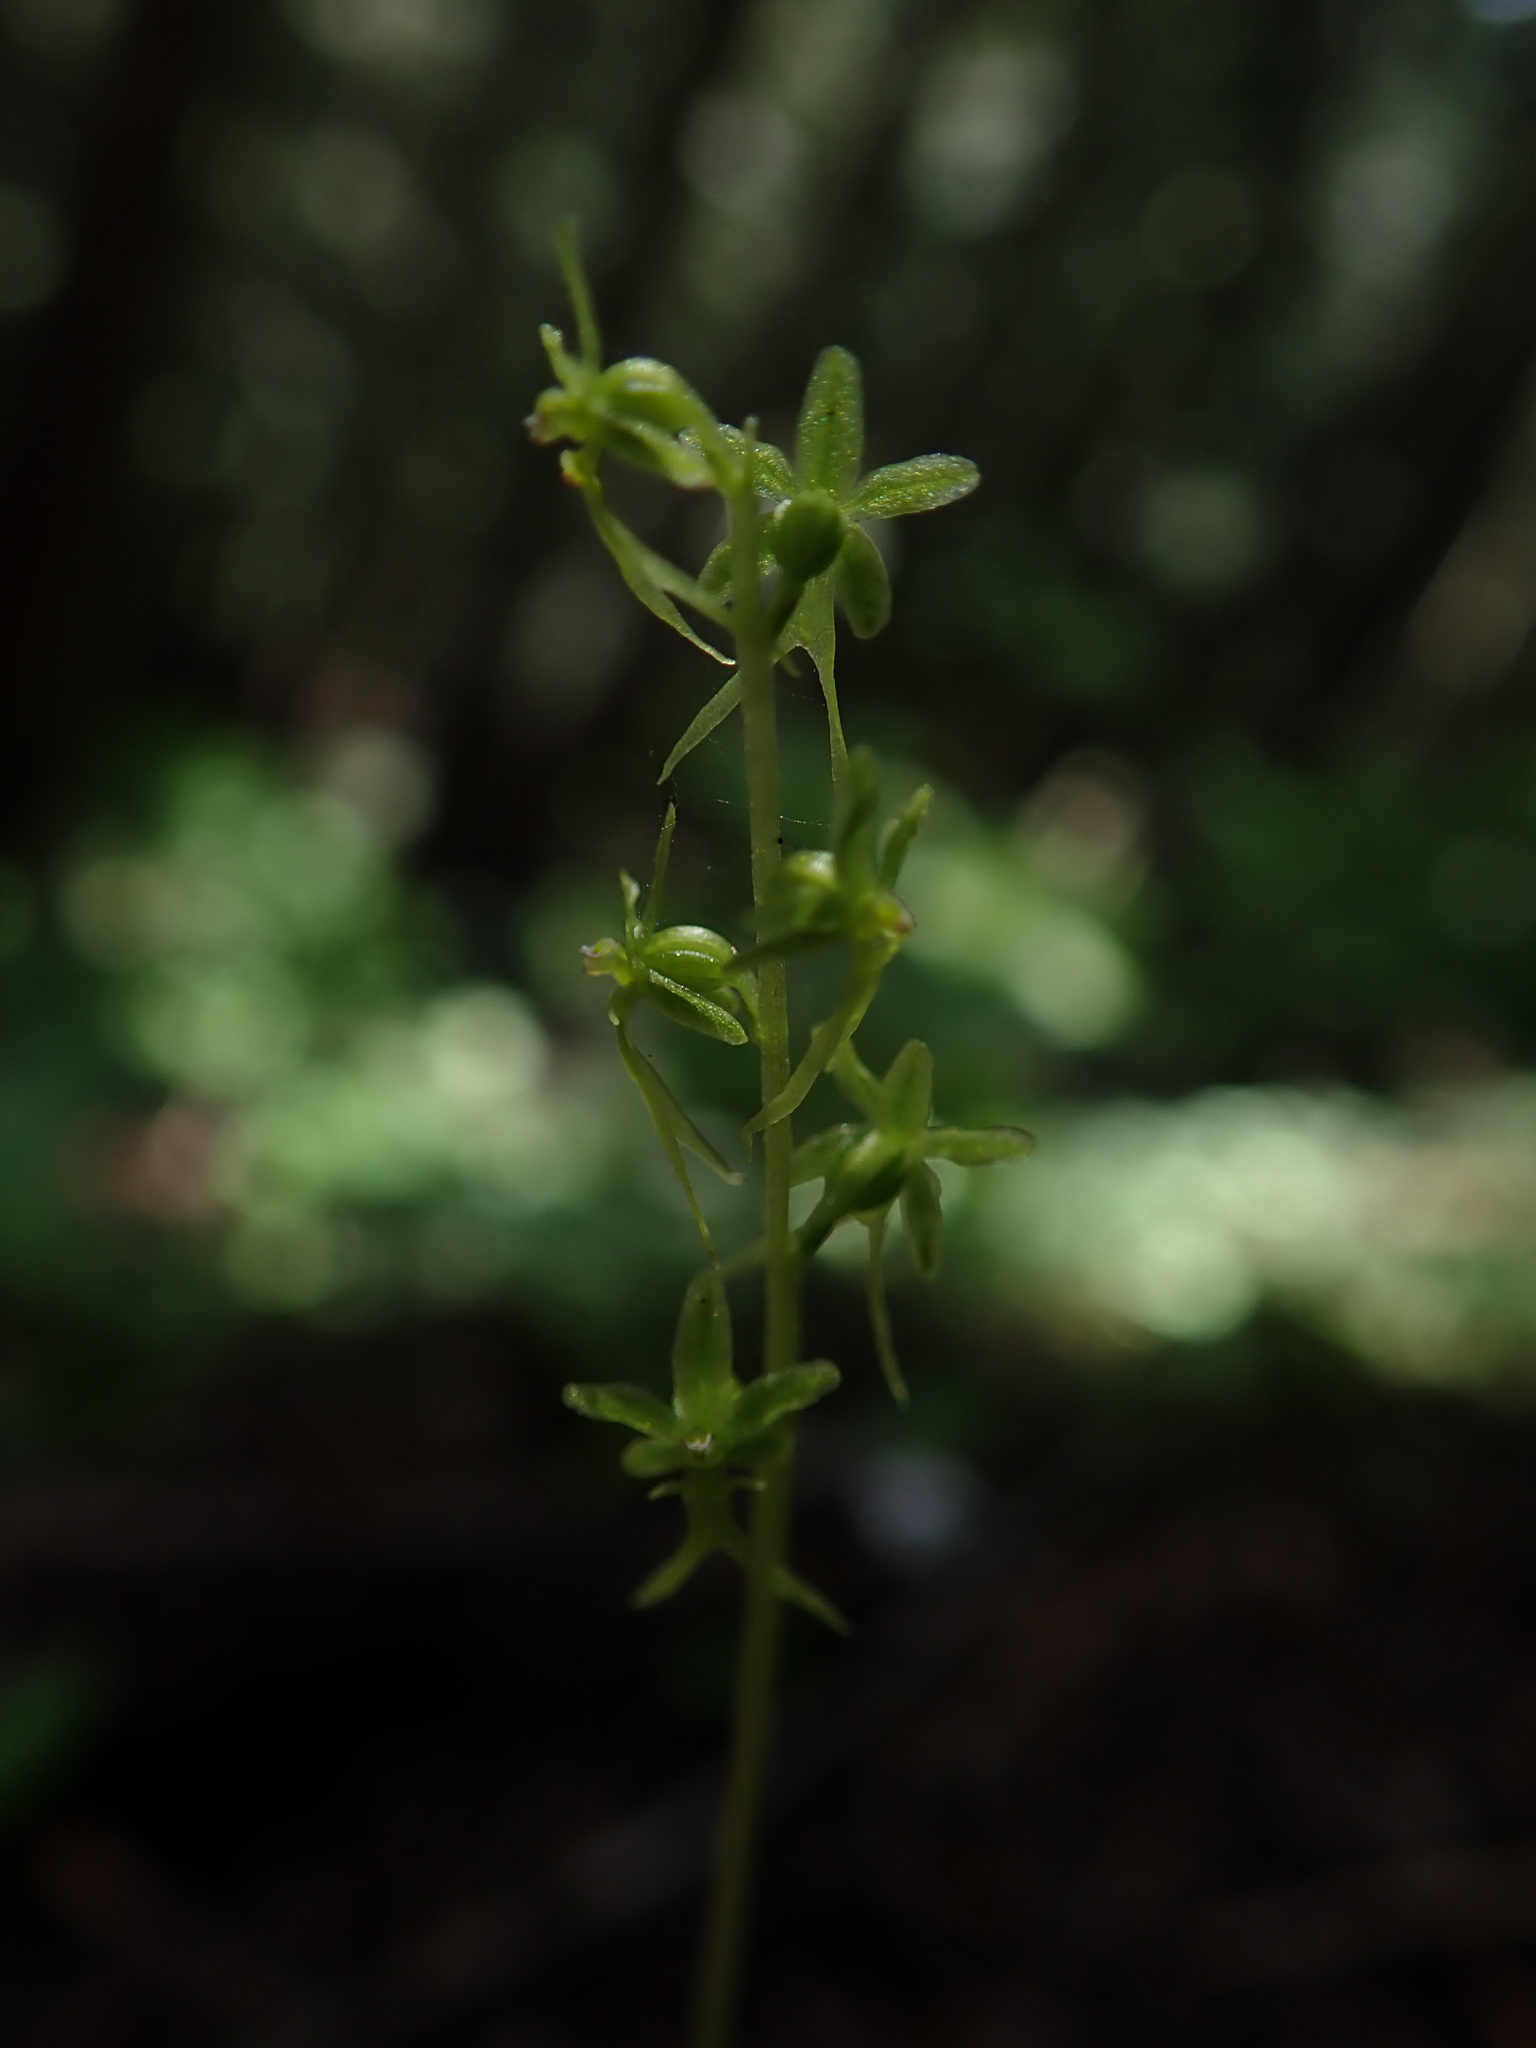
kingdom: Plantae
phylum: Tracheophyta
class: Liliopsida
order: Asparagales
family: Orchidaceae
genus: Neottia
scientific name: Neottia cordata
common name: Lesser twayblade
